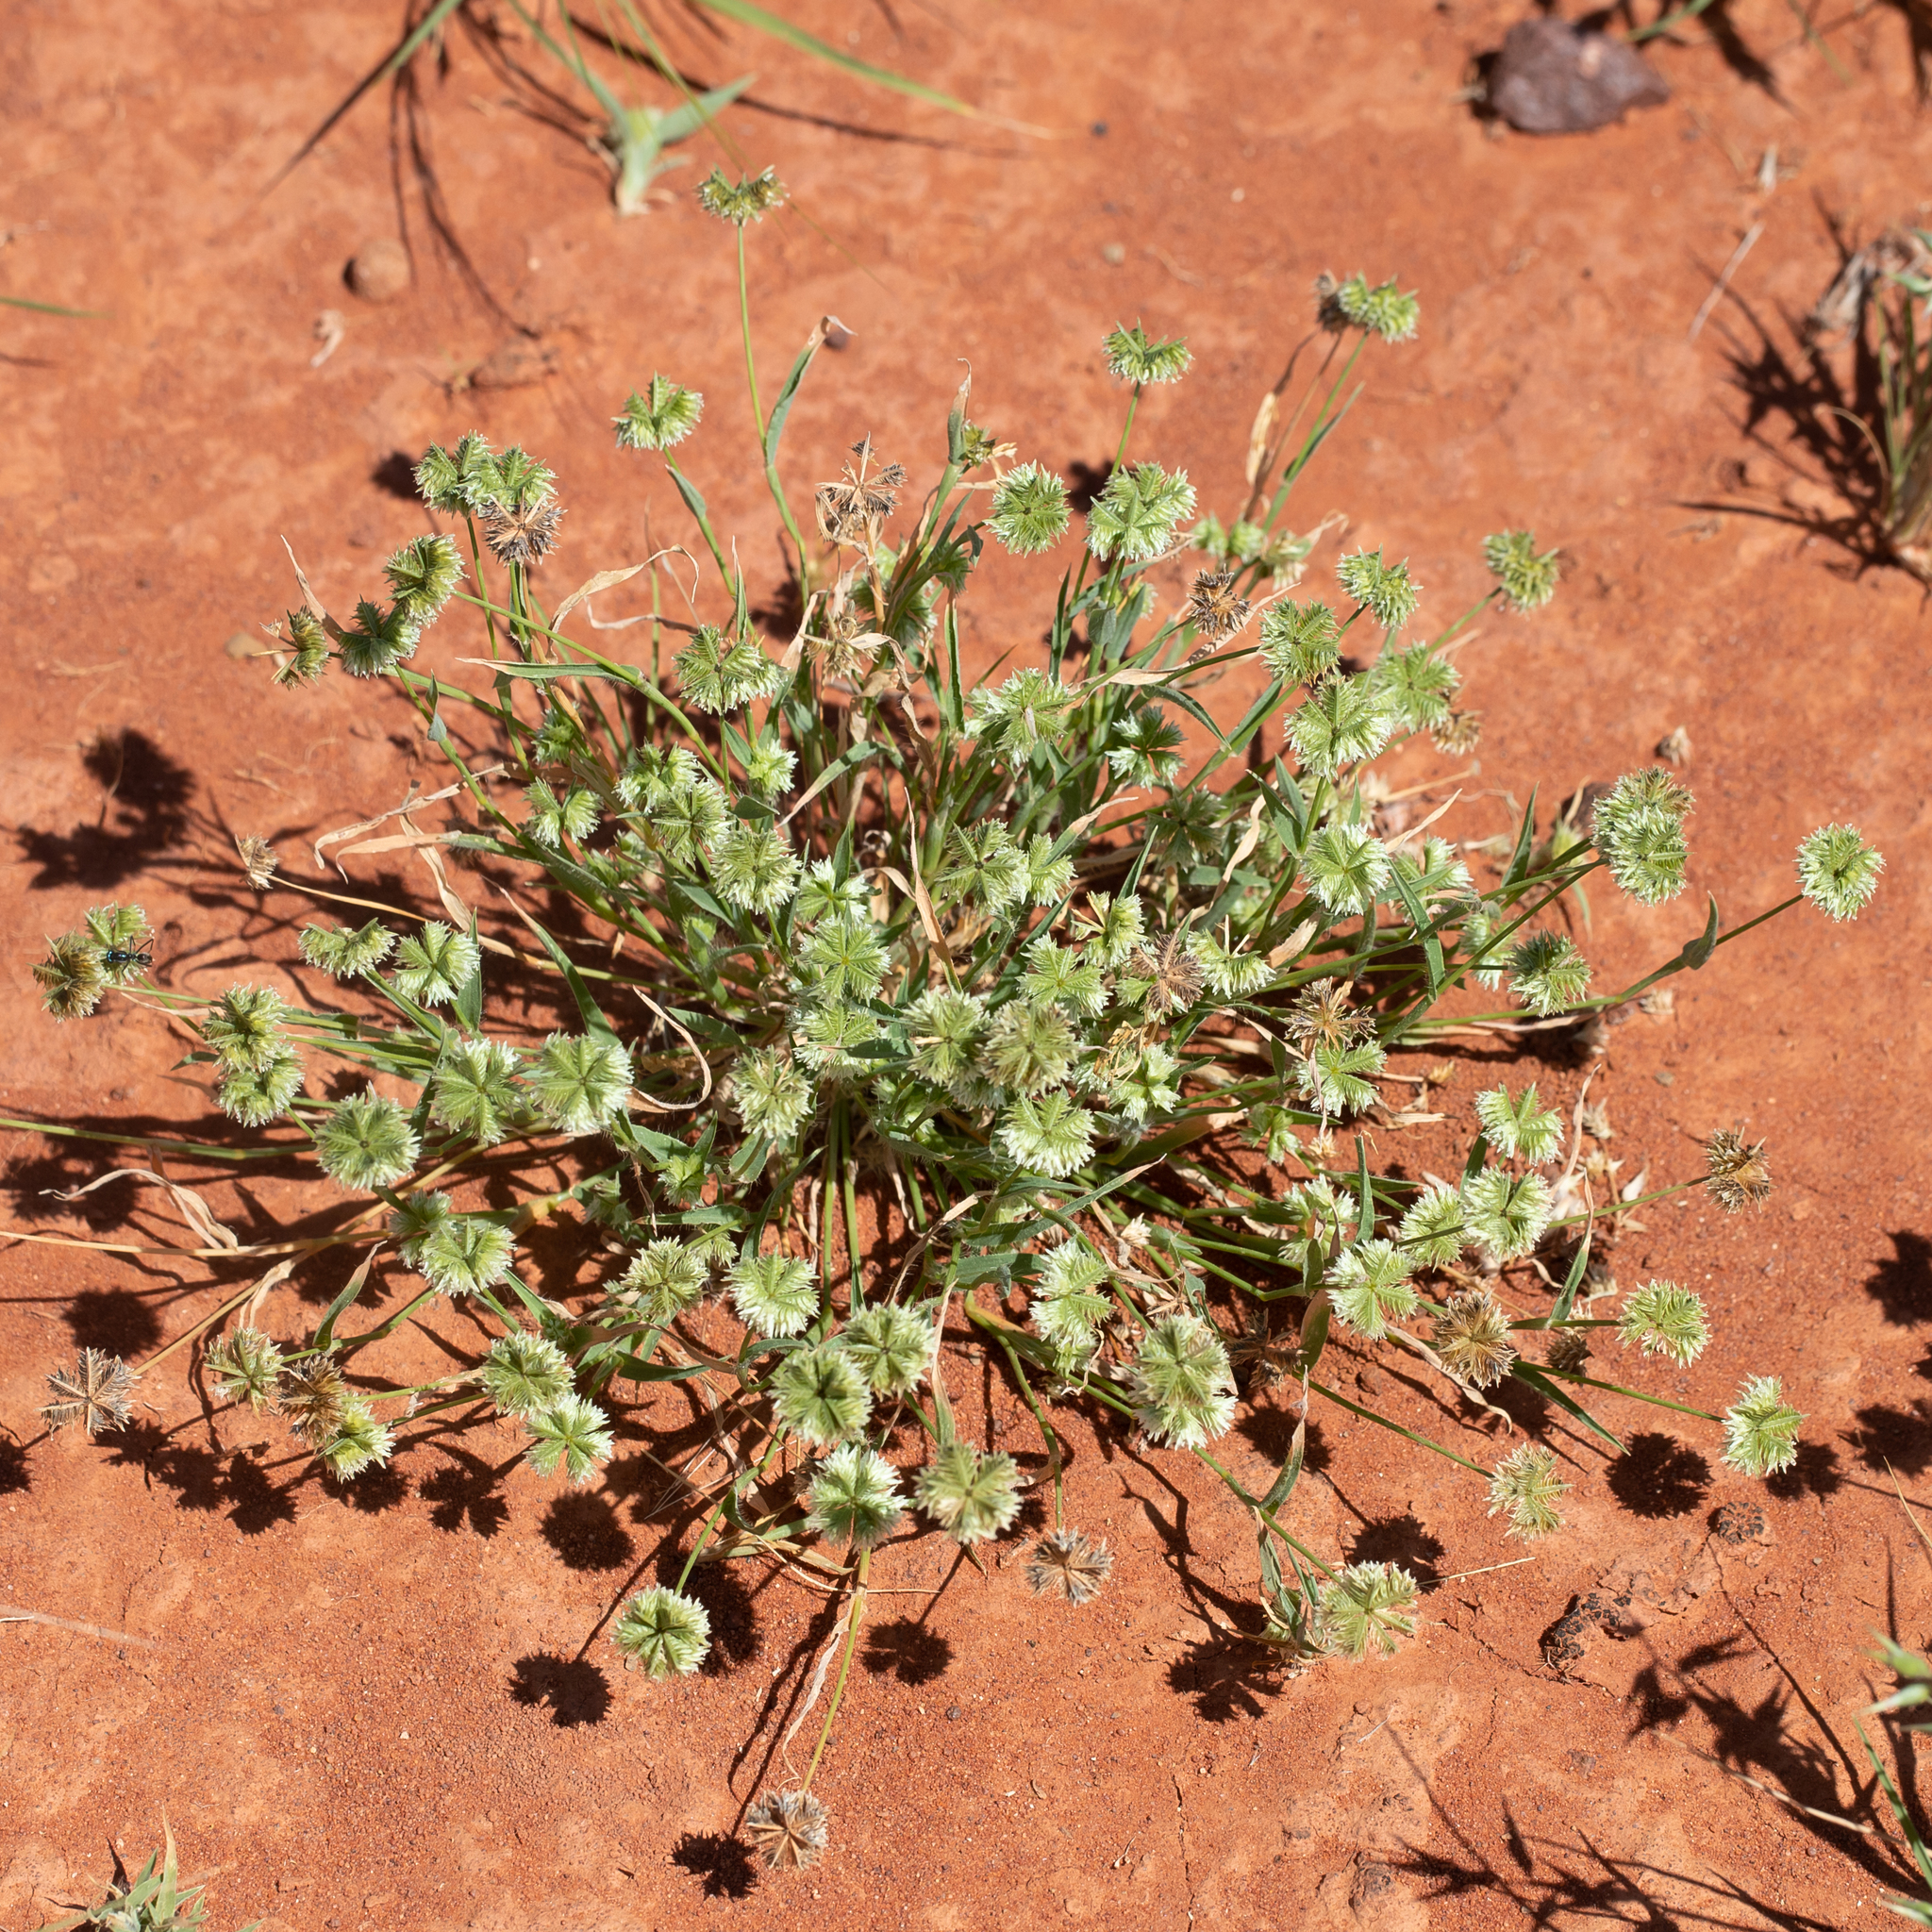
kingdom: Plantae
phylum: Tracheophyta
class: Liliopsida
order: Poales
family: Poaceae
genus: Dactyloctenium
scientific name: Dactyloctenium radulans
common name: Button-grass
